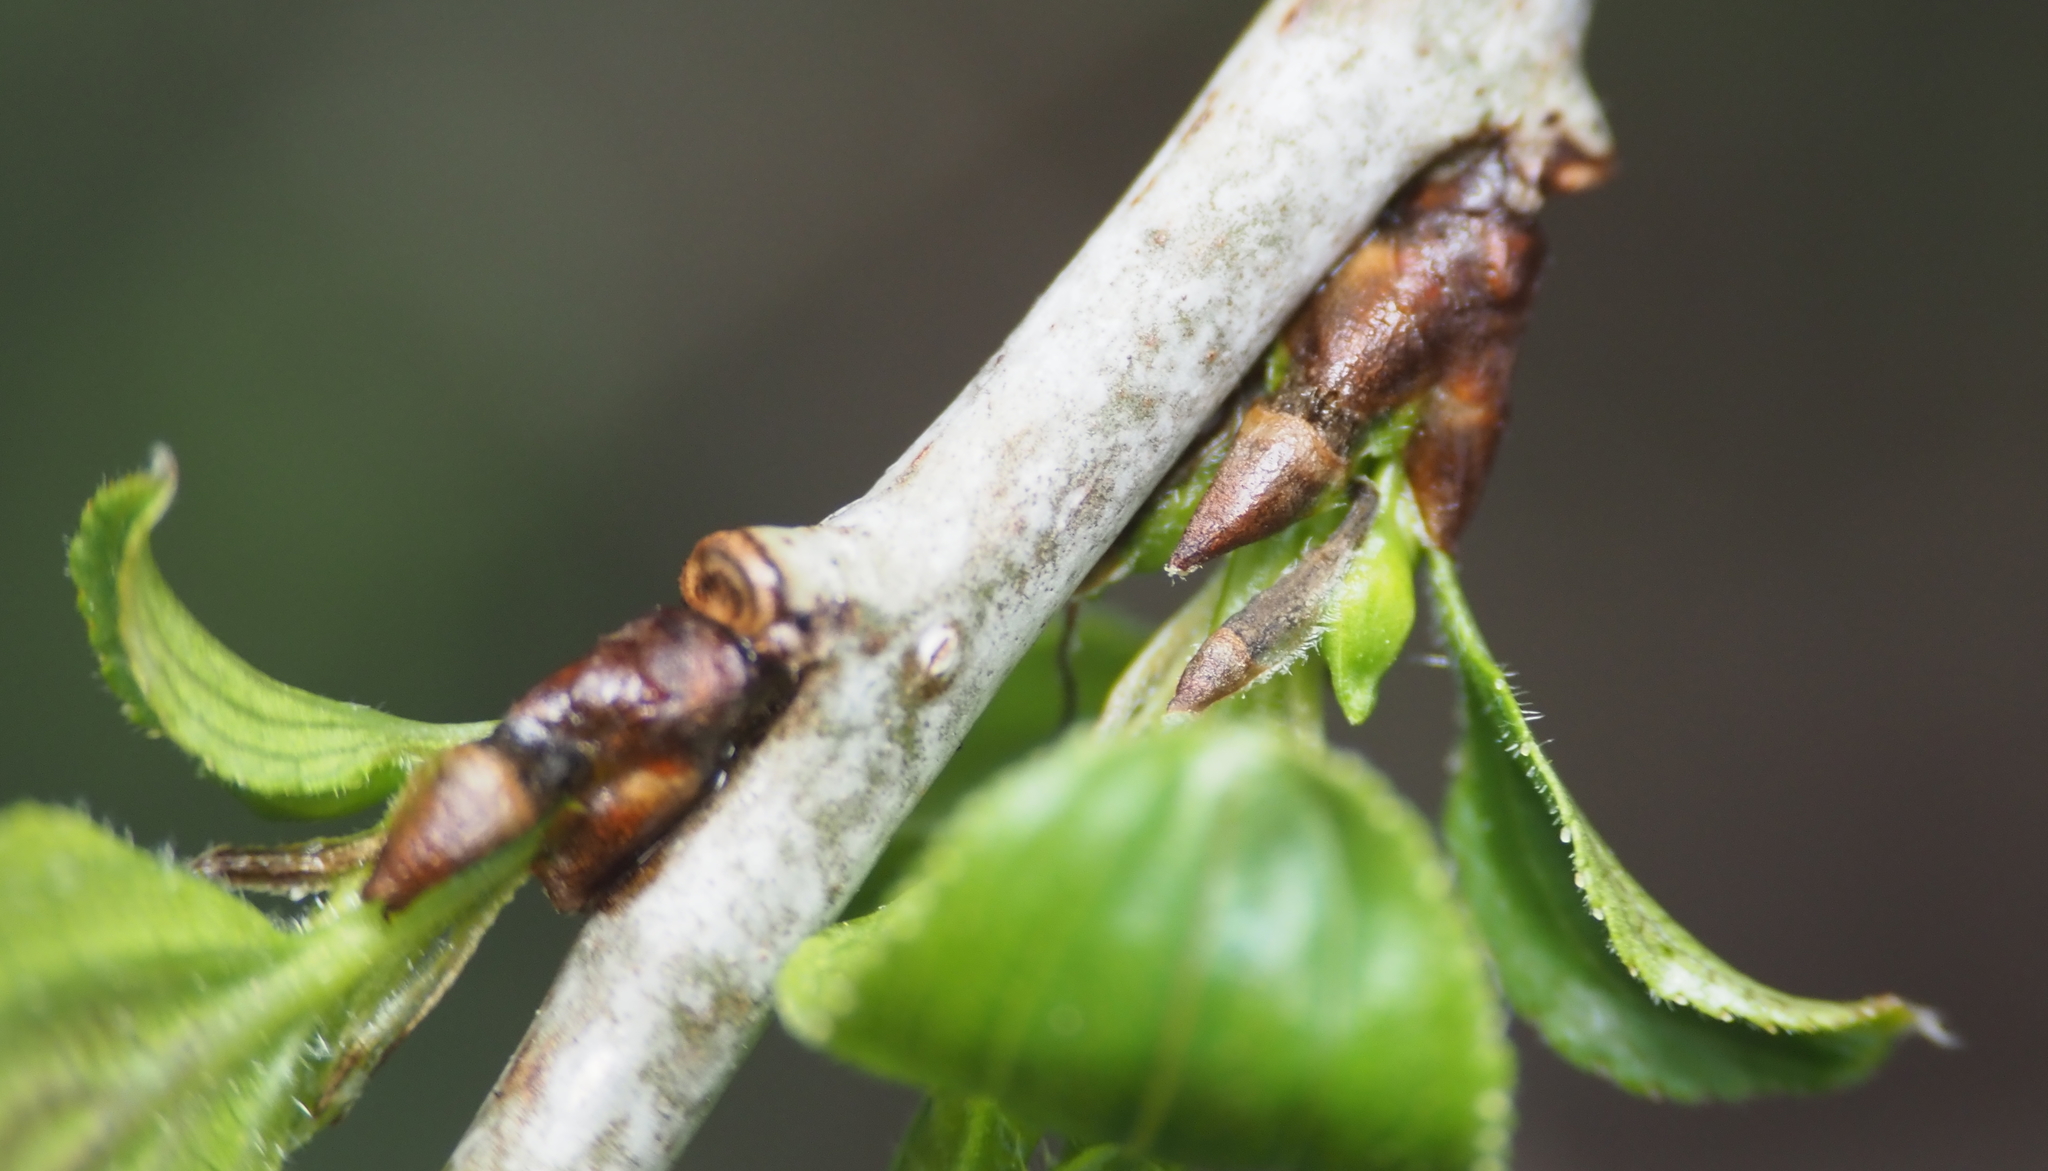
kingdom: Plantae
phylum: Tracheophyta
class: Magnoliopsida
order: Celastrales
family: Celastraceae
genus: Celastrus
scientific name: Celastrus orbiculatus
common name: Oriental bittersweet
